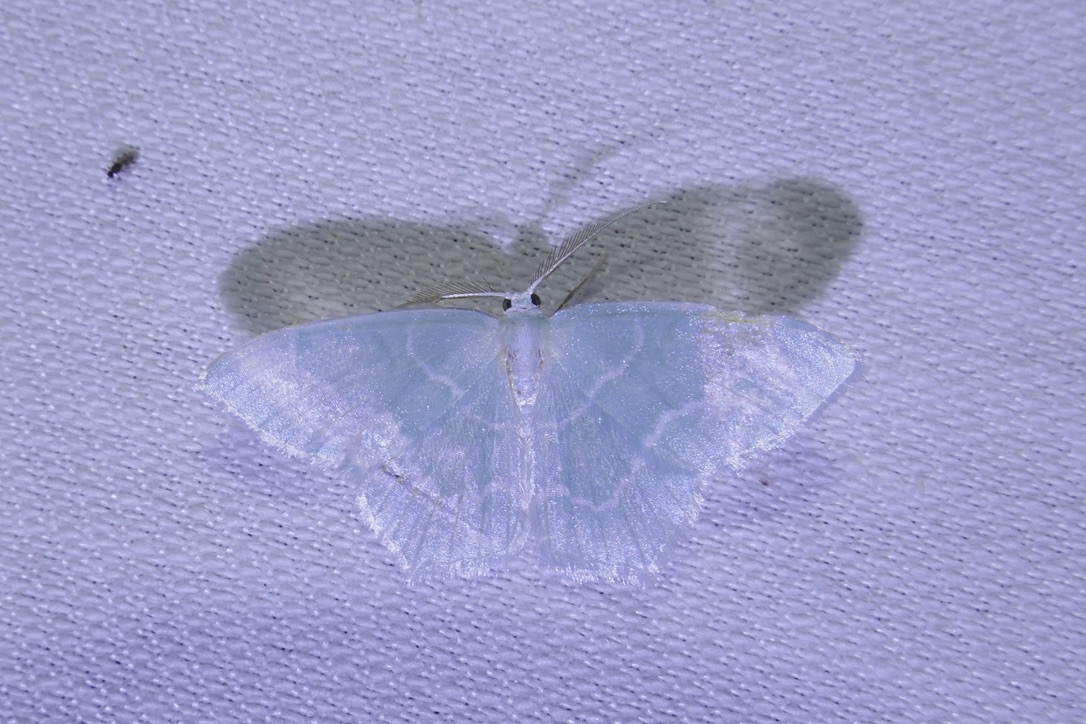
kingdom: Animalia
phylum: Arthropoda
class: Insecta
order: Lepidoptera
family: Geometridae
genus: Jodis
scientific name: Jodis lactearia
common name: Little emerald
